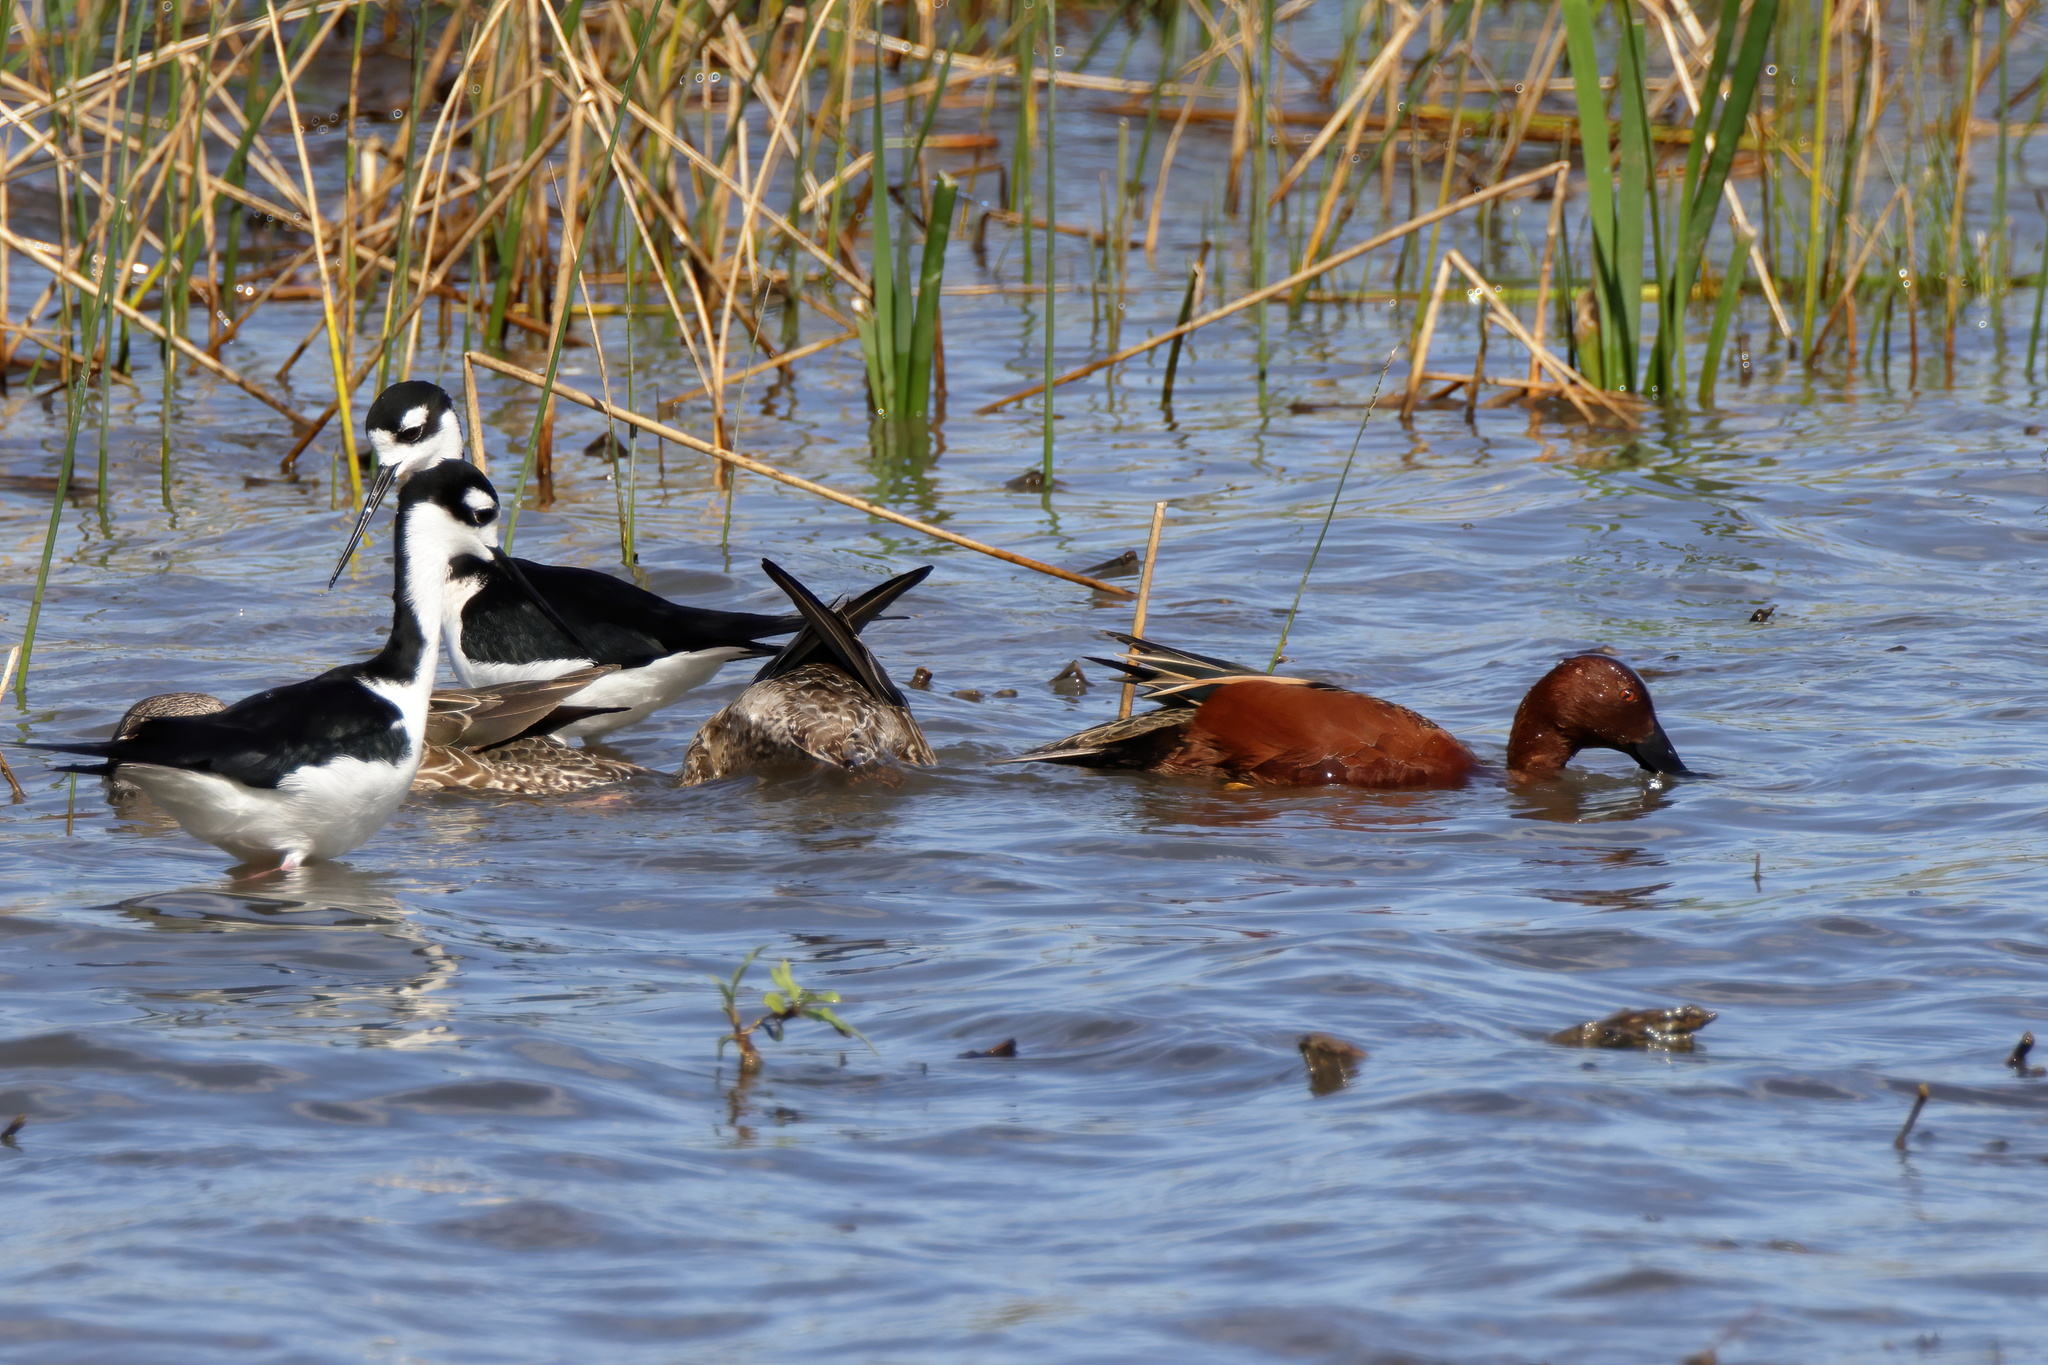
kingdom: Animalia
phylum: Chordata
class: Aves
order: Anseriformes
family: Anatidae
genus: Spatula
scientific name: Spatula cyanoptera
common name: Cinnamon teal
